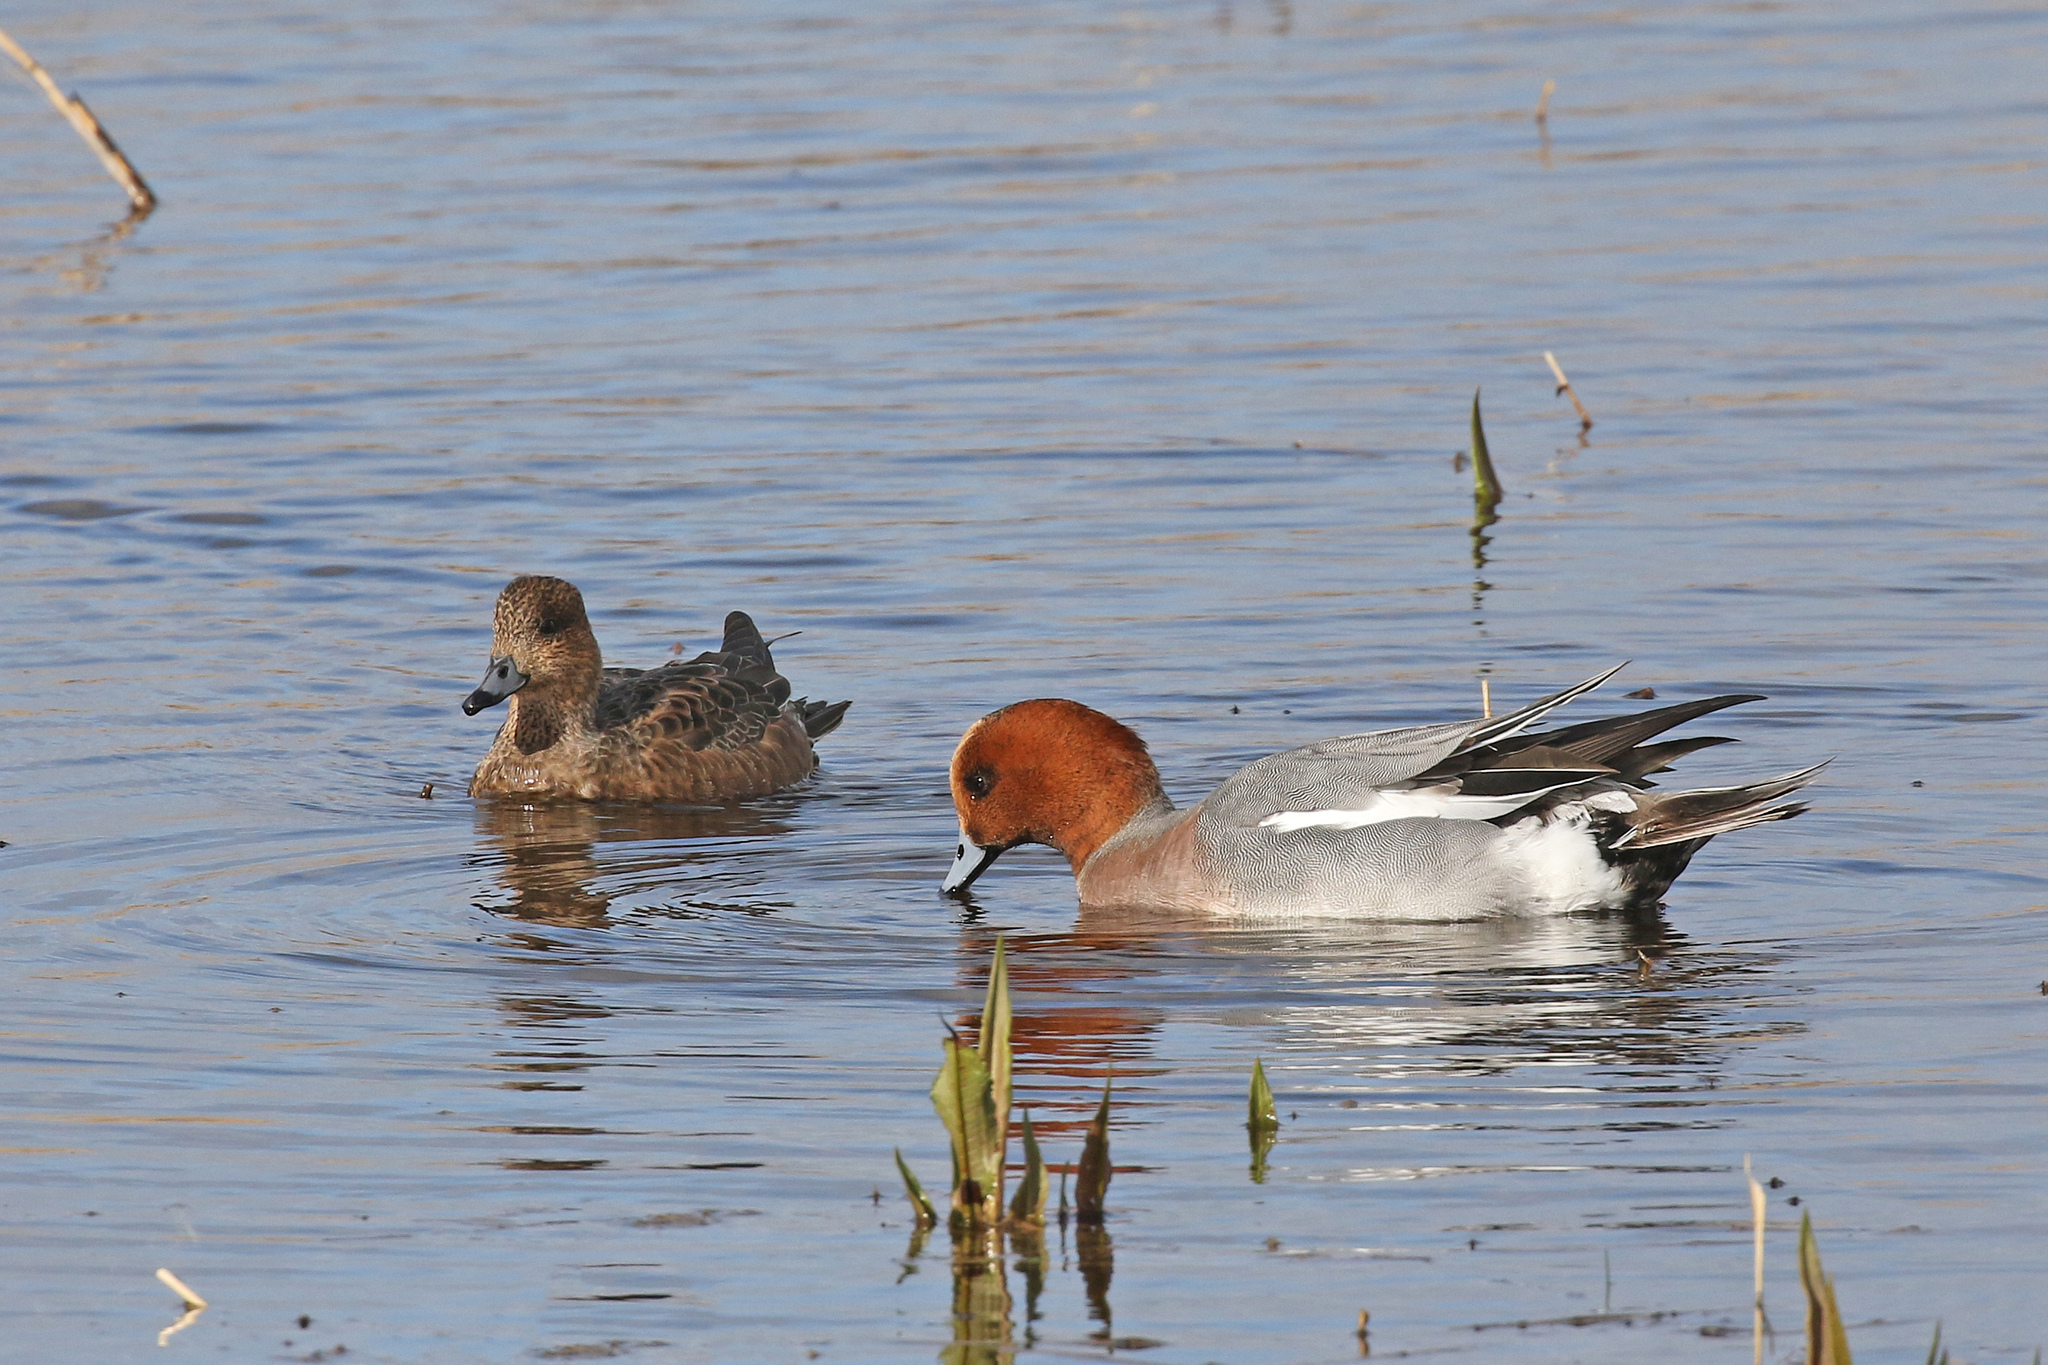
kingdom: Animalia
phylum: Chordata
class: Aves
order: Anseriformes
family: Anatidae
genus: Mareca
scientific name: Mareca penelope
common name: Eurasian wigeon
